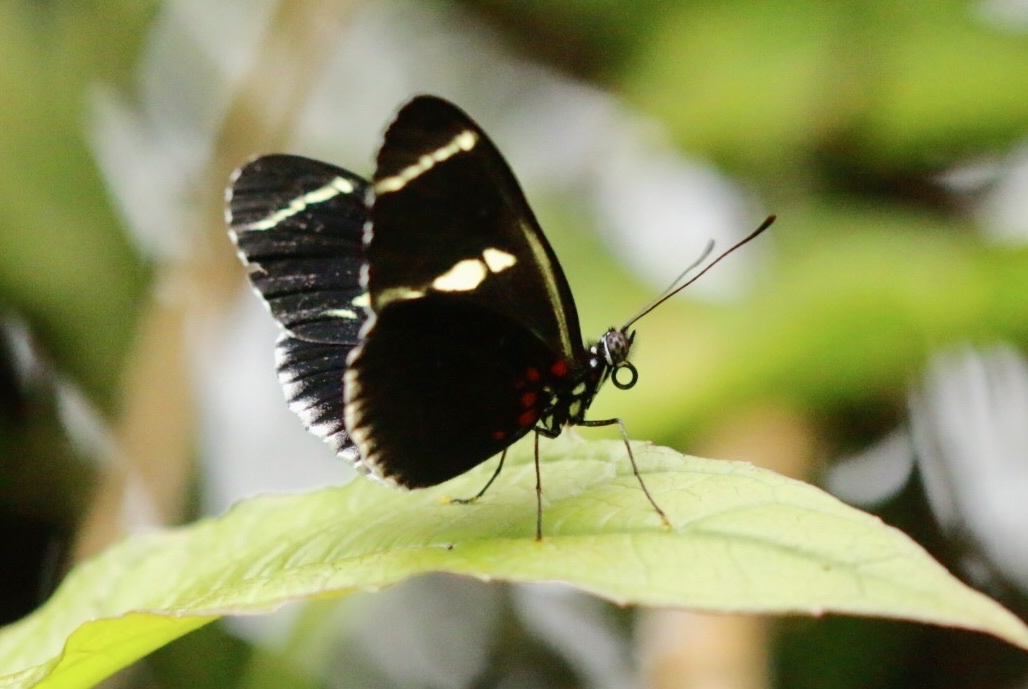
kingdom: Animalia
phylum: Arthropoda
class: Insecta
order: Lepidoptera
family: Nymphalidae
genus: Heliconius
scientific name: Heliconius sara
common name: Sara longwing
